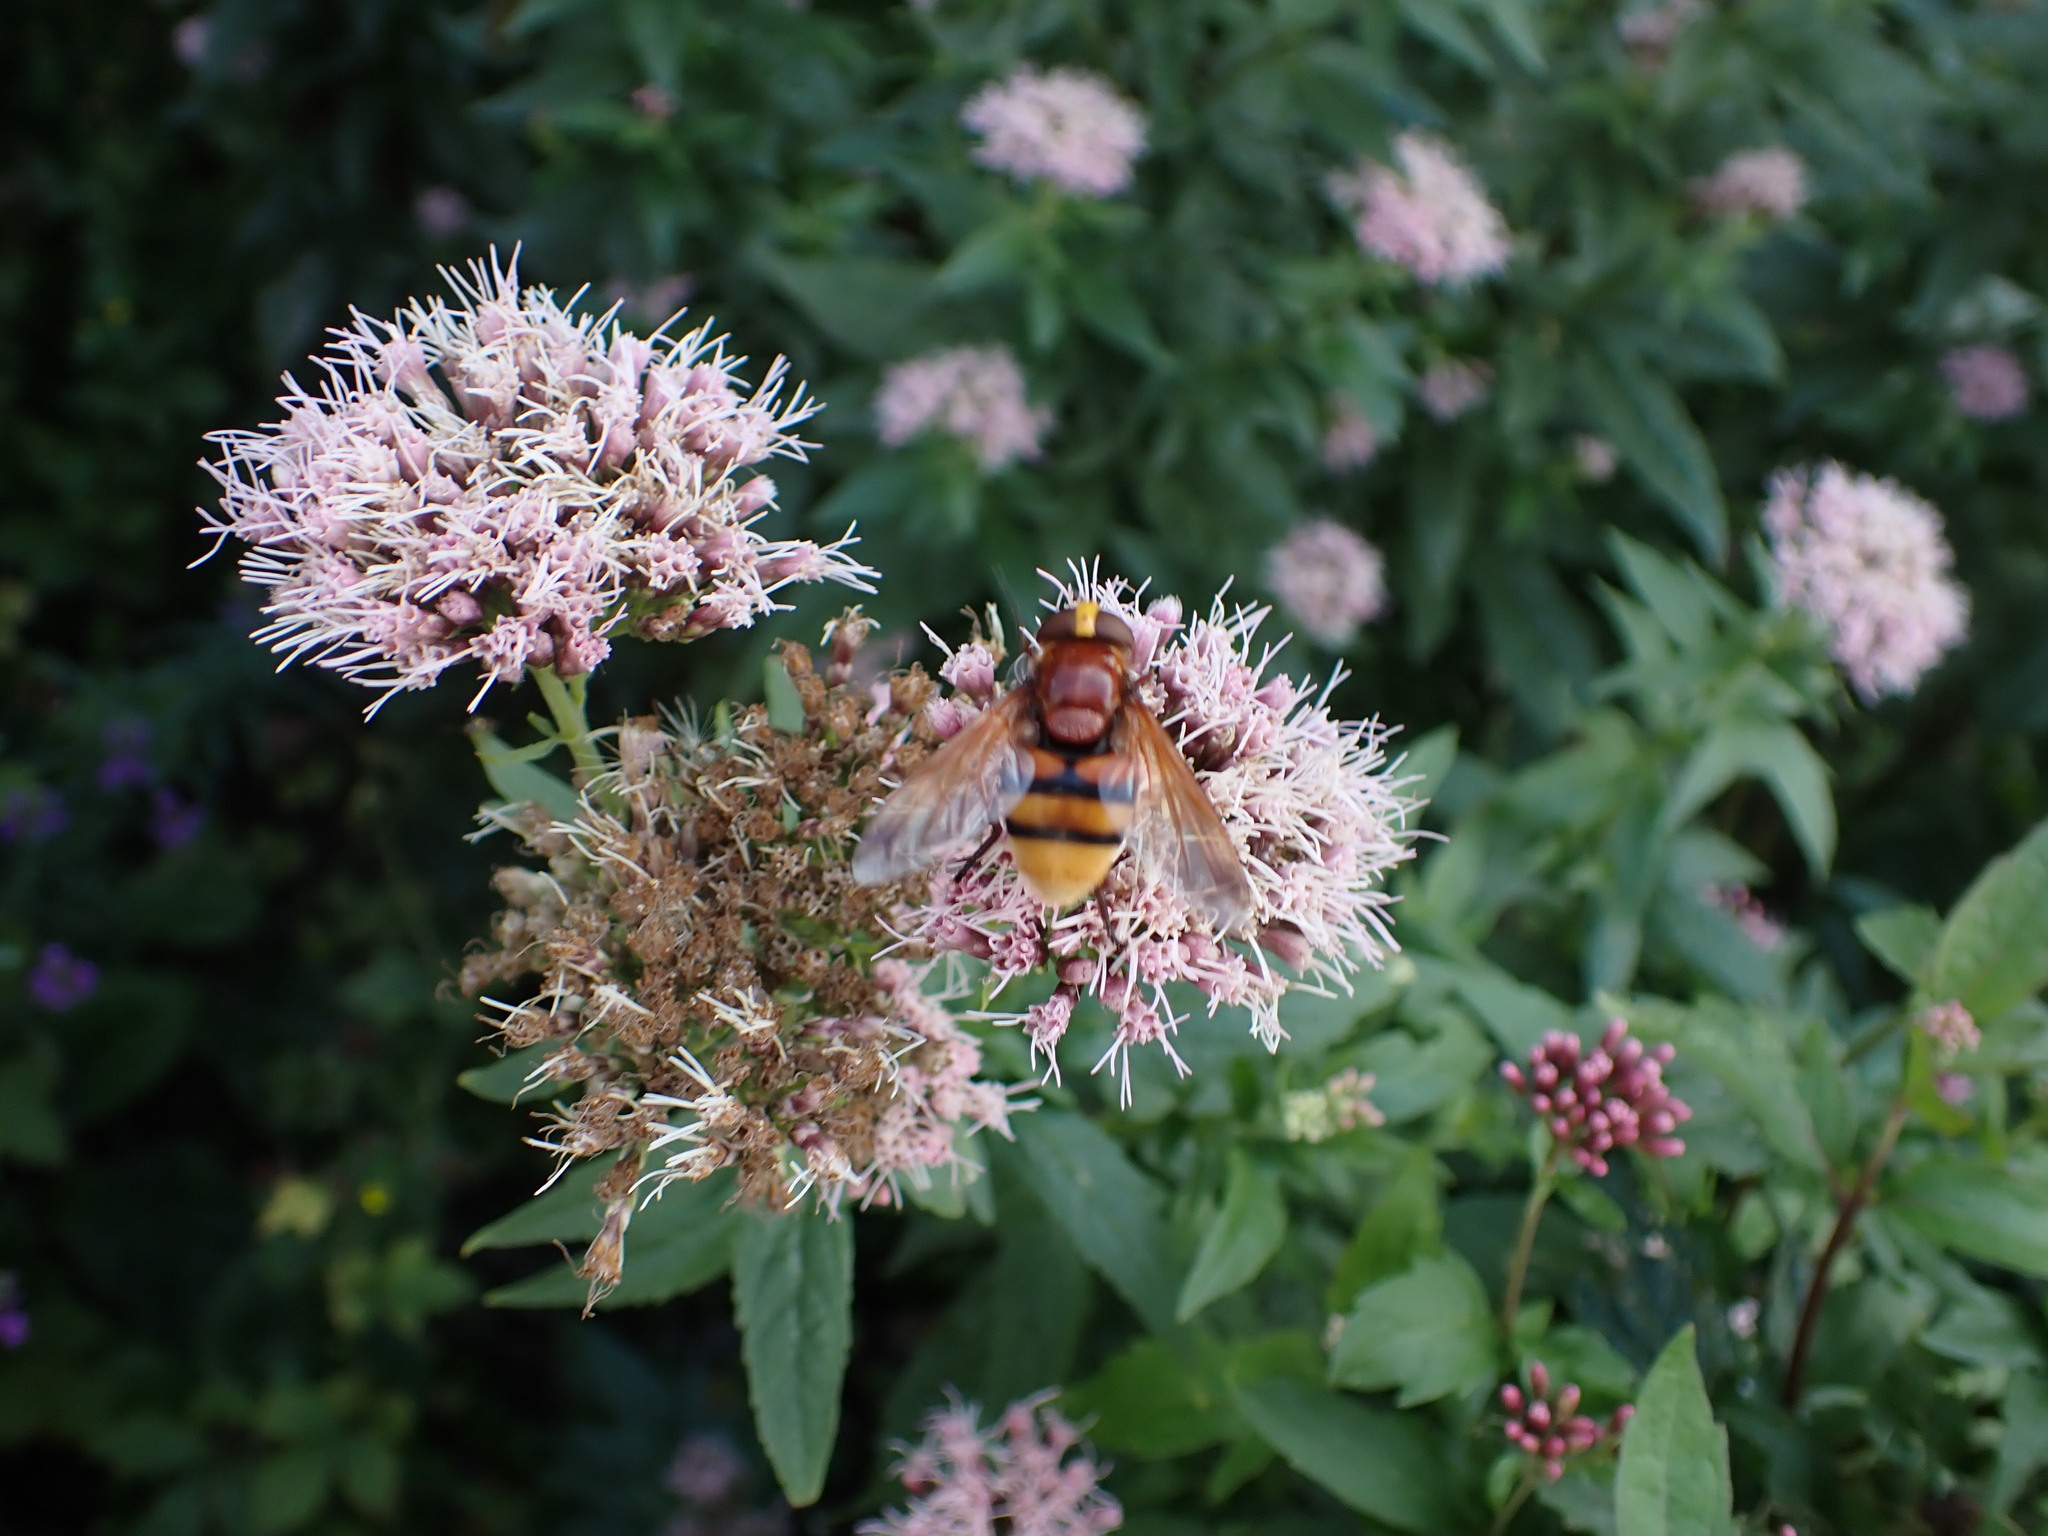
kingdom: Animalia
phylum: Arthropoda
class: Insecta
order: Diptera
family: Syrphidae
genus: Volucella
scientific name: Volucella zonaria
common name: Hornet hoverfly
